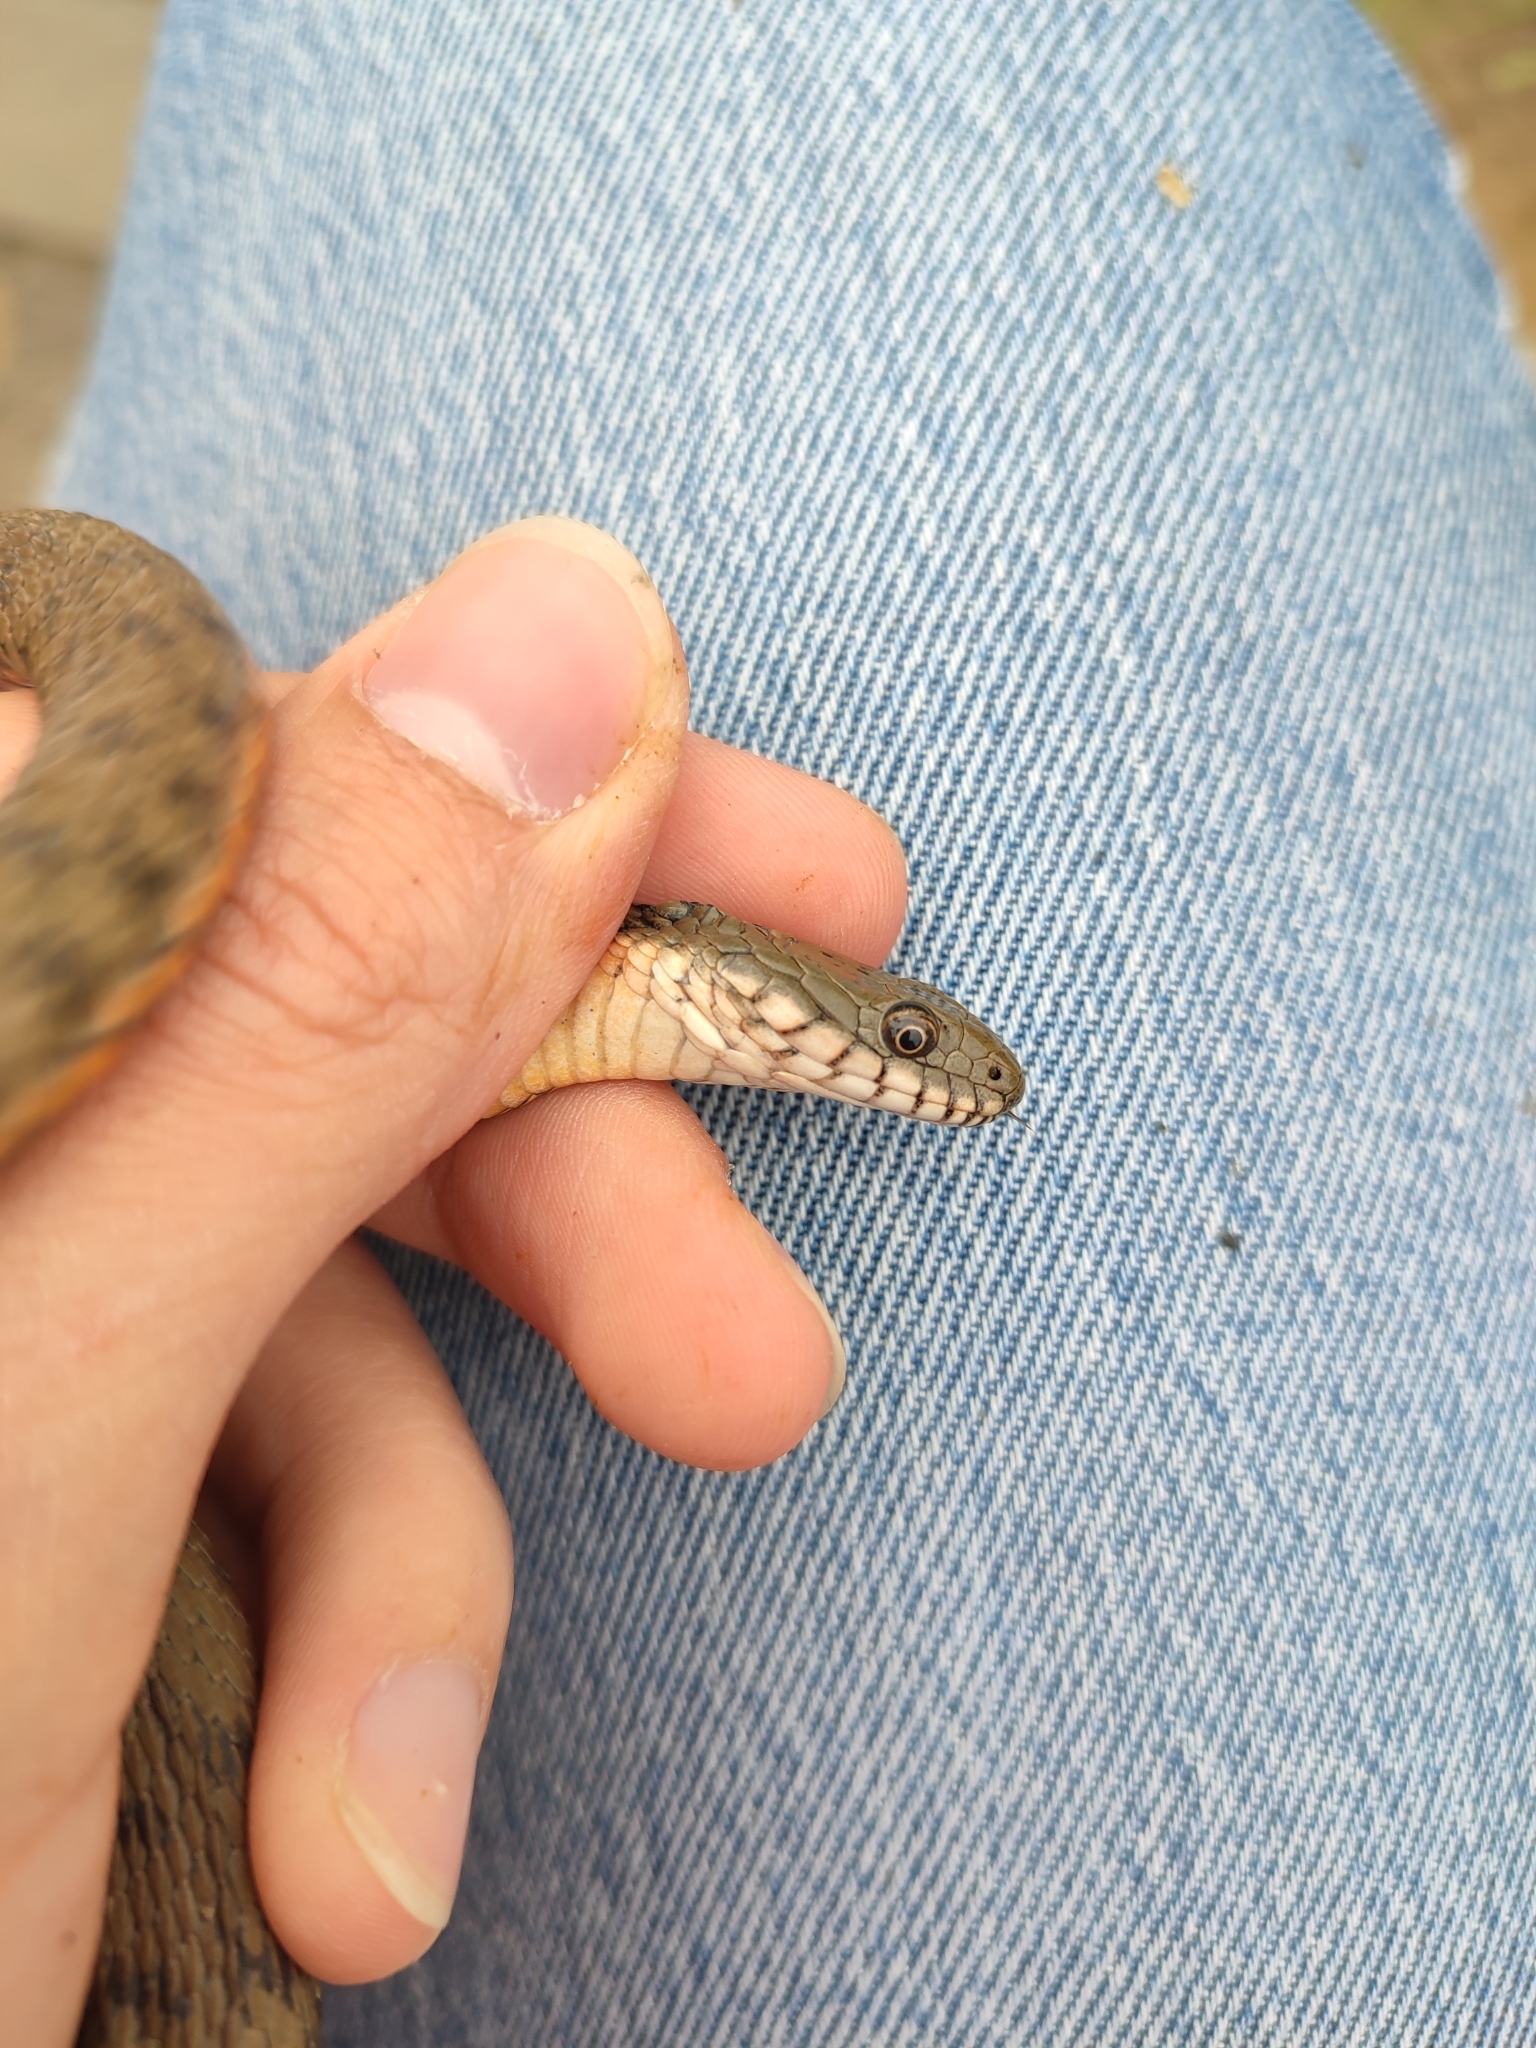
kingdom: Animalia
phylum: Chordata
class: Squamata
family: Colubridae
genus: Natrix
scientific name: Natrix tessellata
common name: Dice snake
